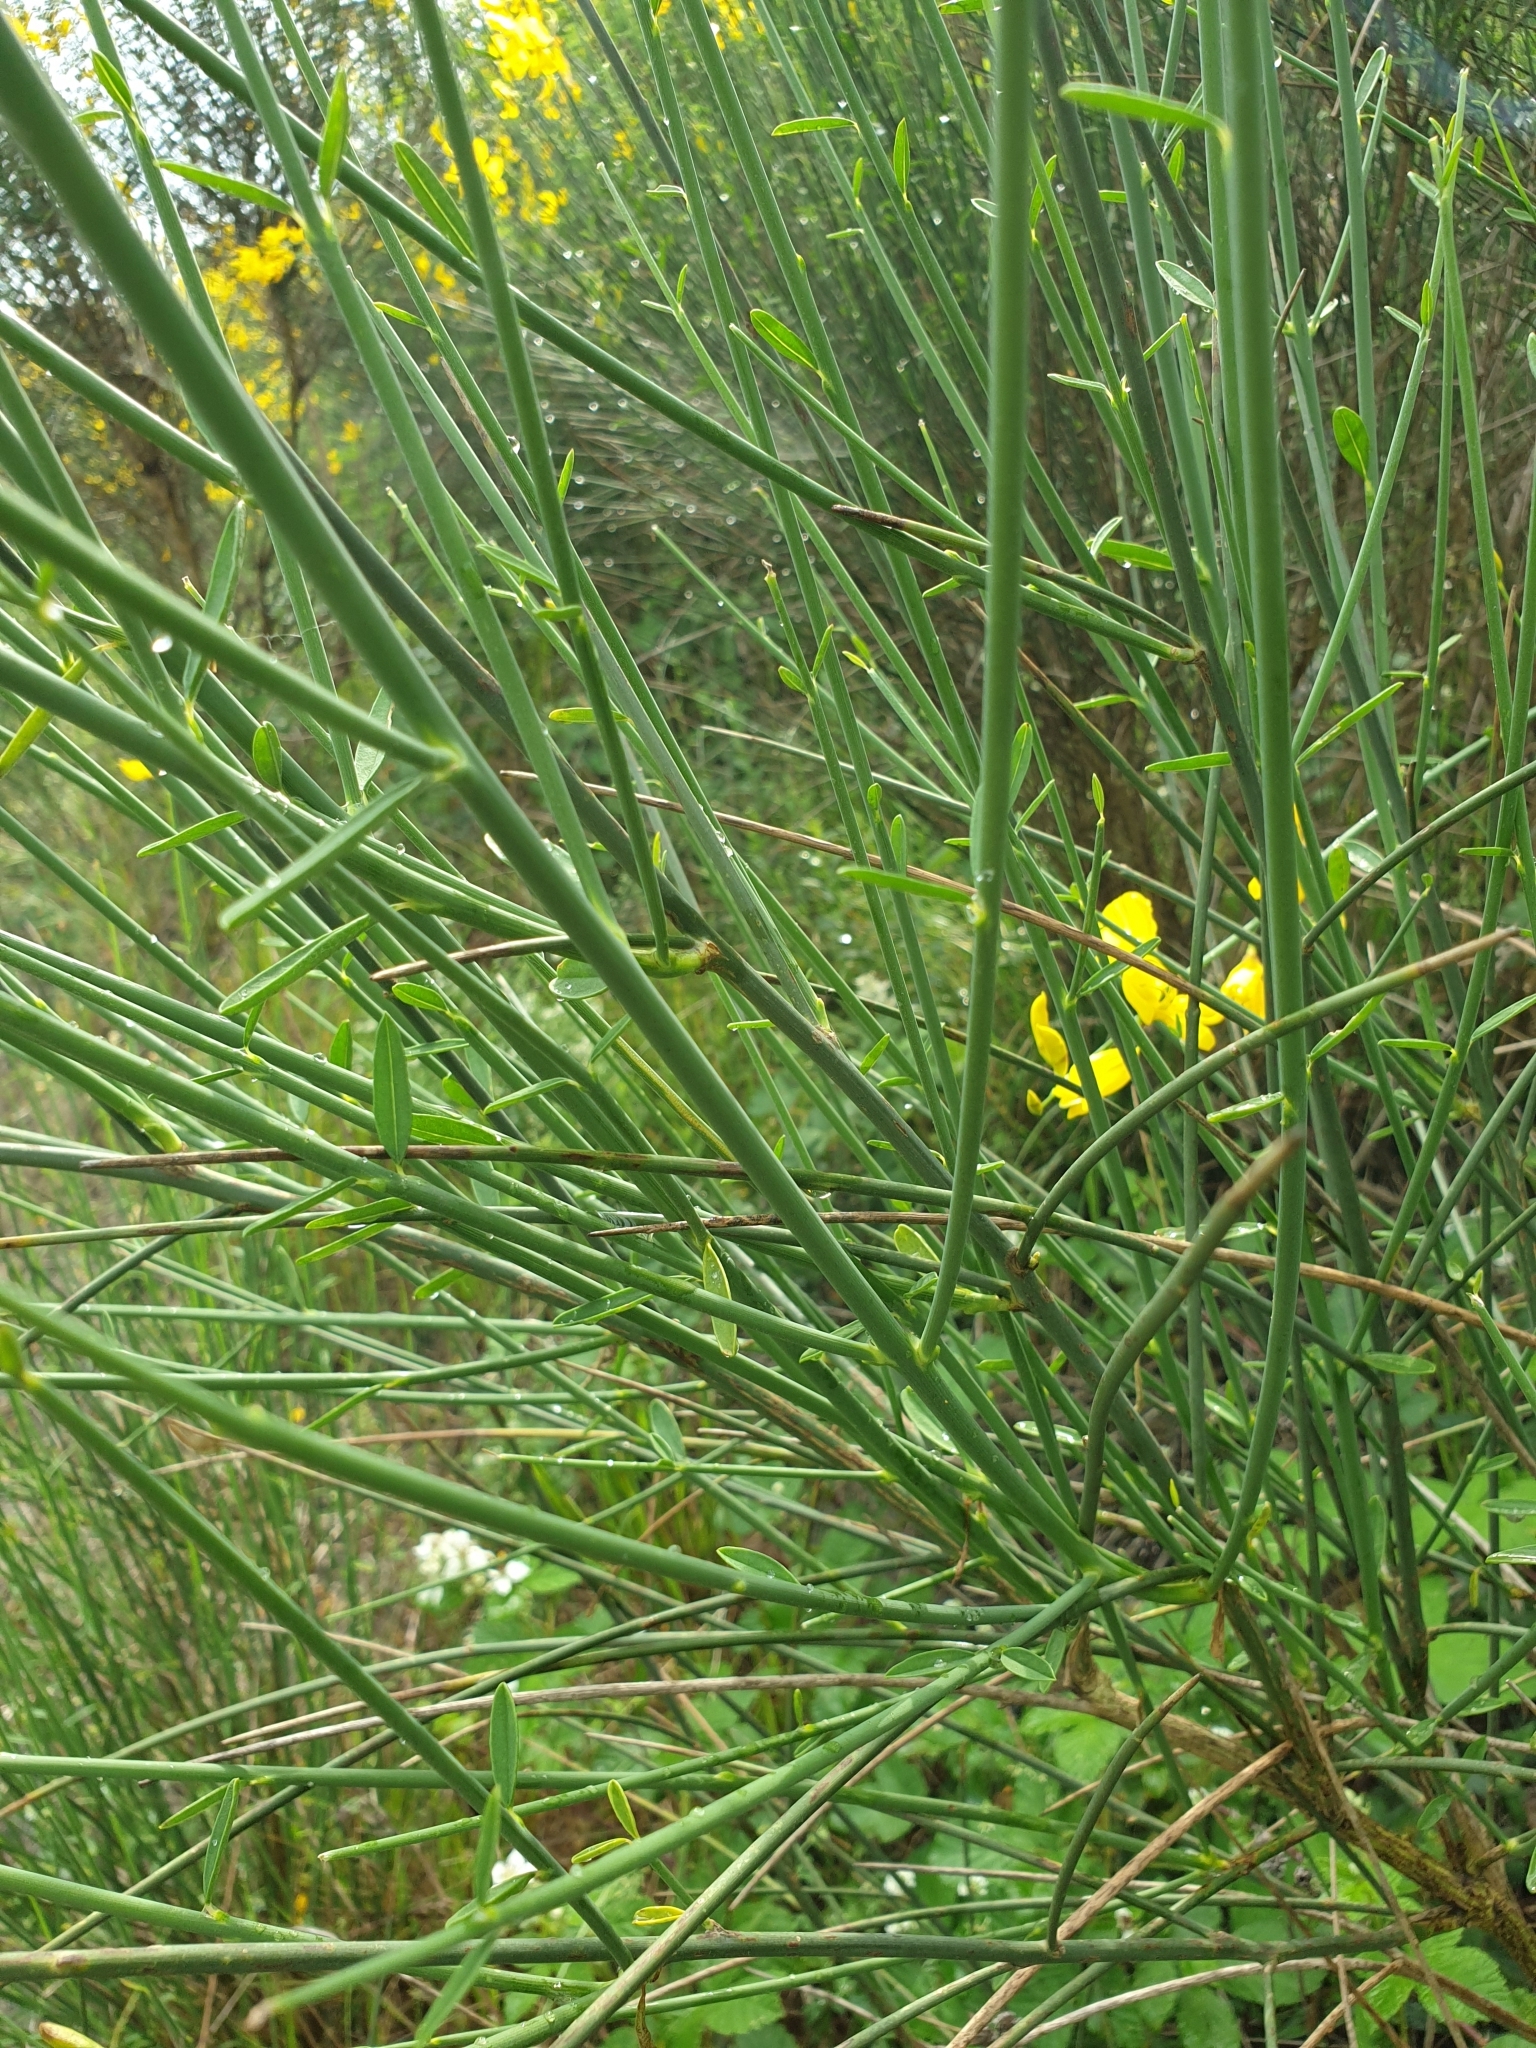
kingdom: Plantae
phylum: Tracheophyta
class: Magnoliopsida
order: Fabales
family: Fabaceae
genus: Spartium
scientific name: Spartium junceum
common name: Spanish broom
